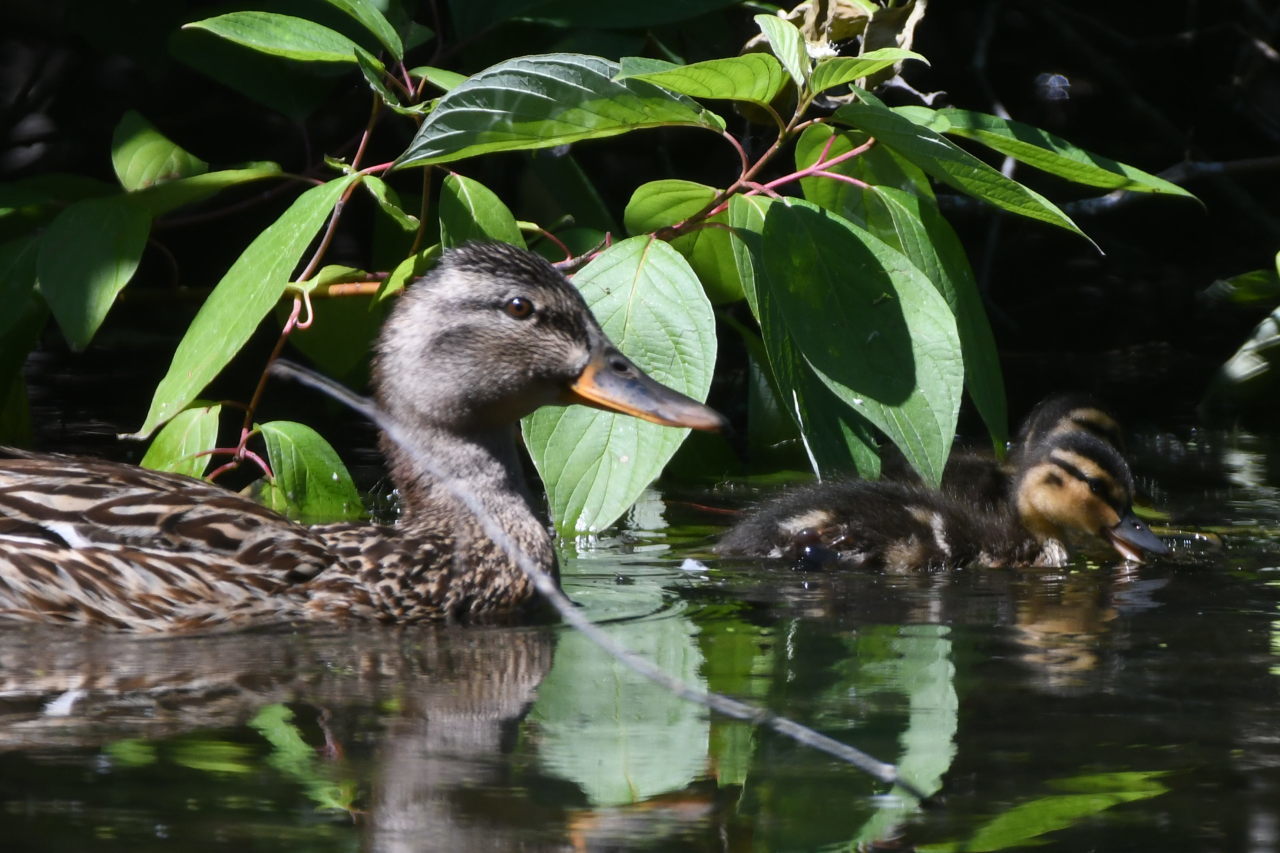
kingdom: Animalia
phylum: Chordata
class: Aves
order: Anseriformes
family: Anatidae
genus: Anas
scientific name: Anas platyrhynchos
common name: Mallard
